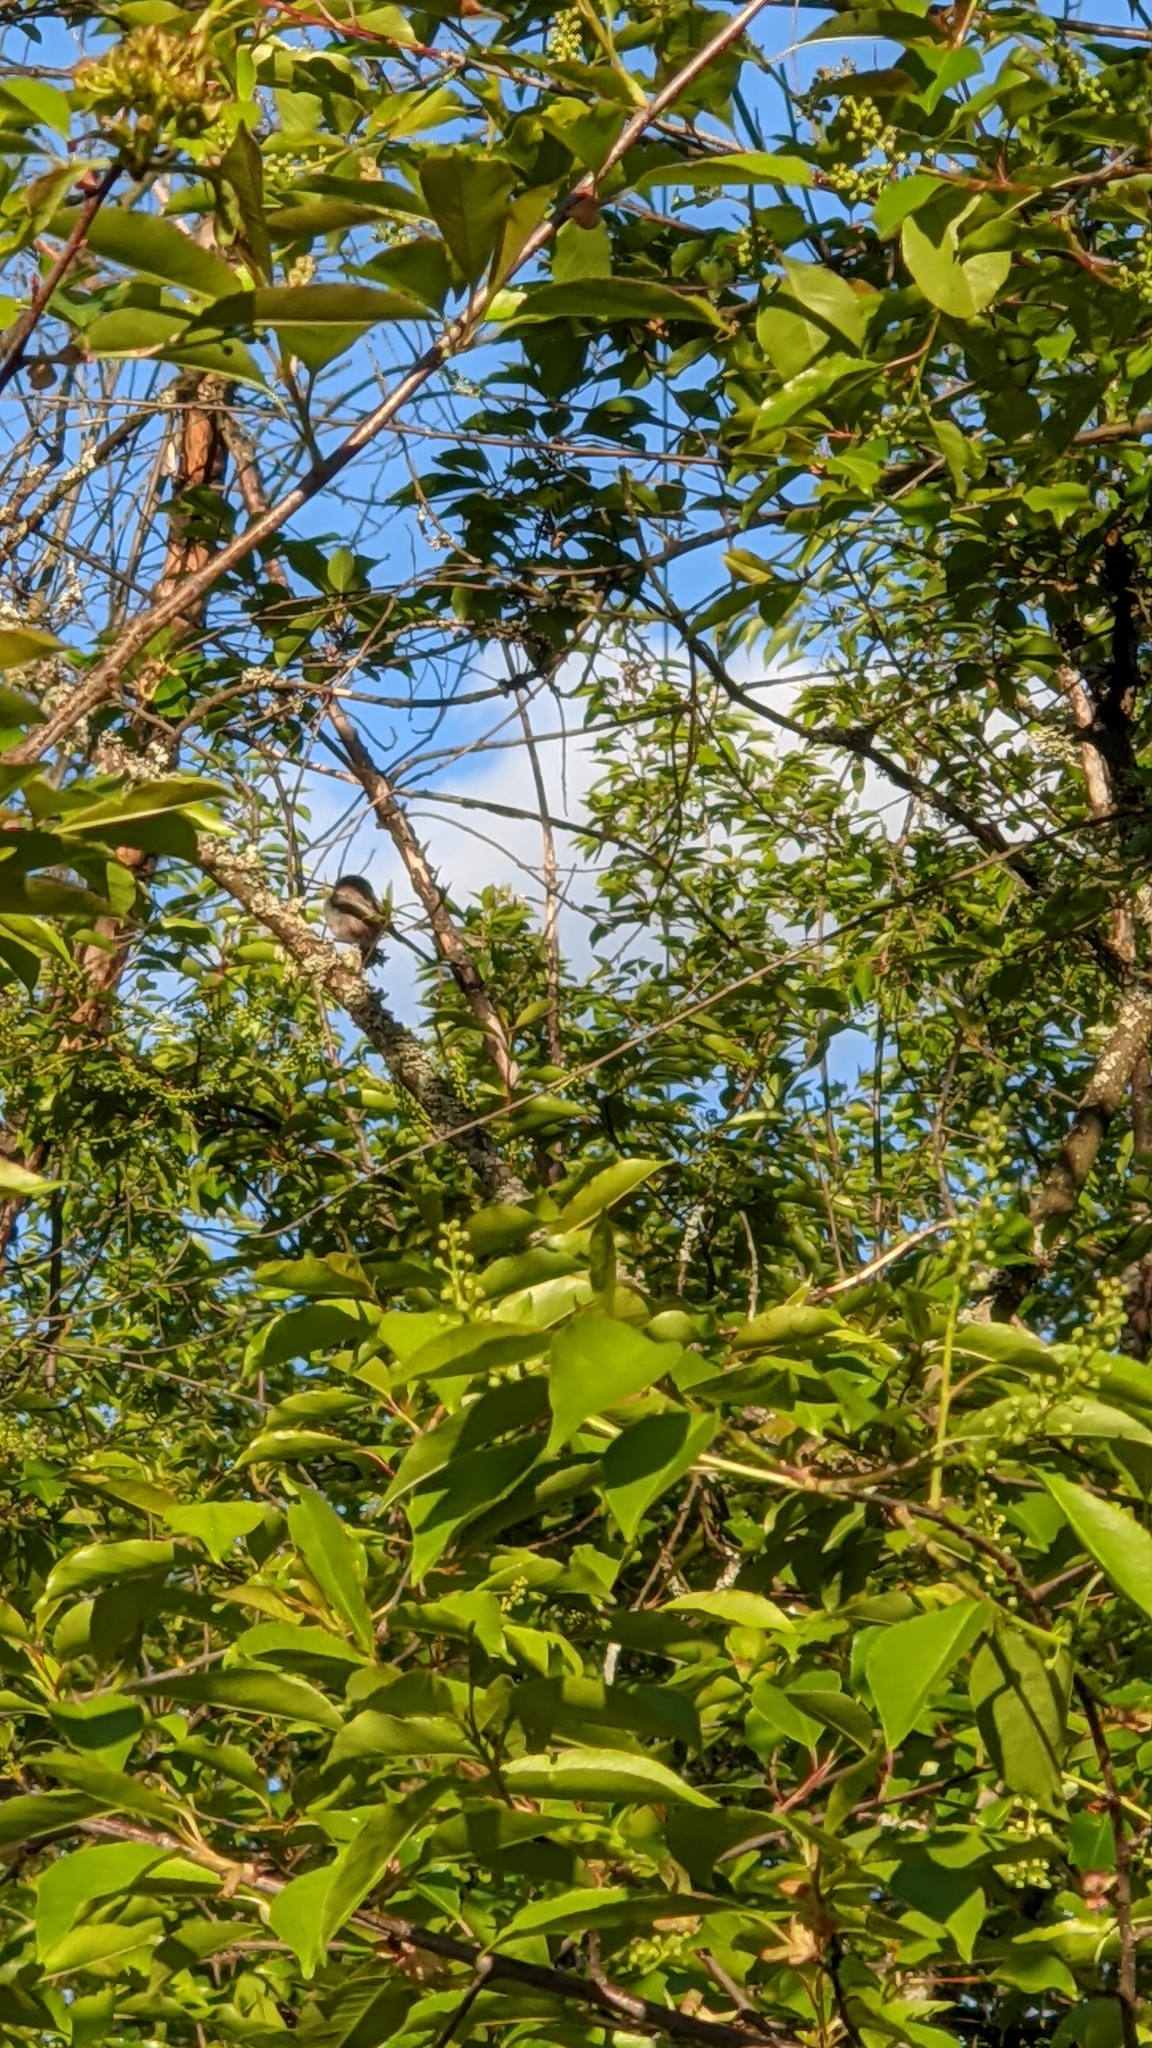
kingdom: Animalia
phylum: Chordata
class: Aves
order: Passeriformes
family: Aegithalidae
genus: Aegithalos
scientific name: Aegithalos caudatus
